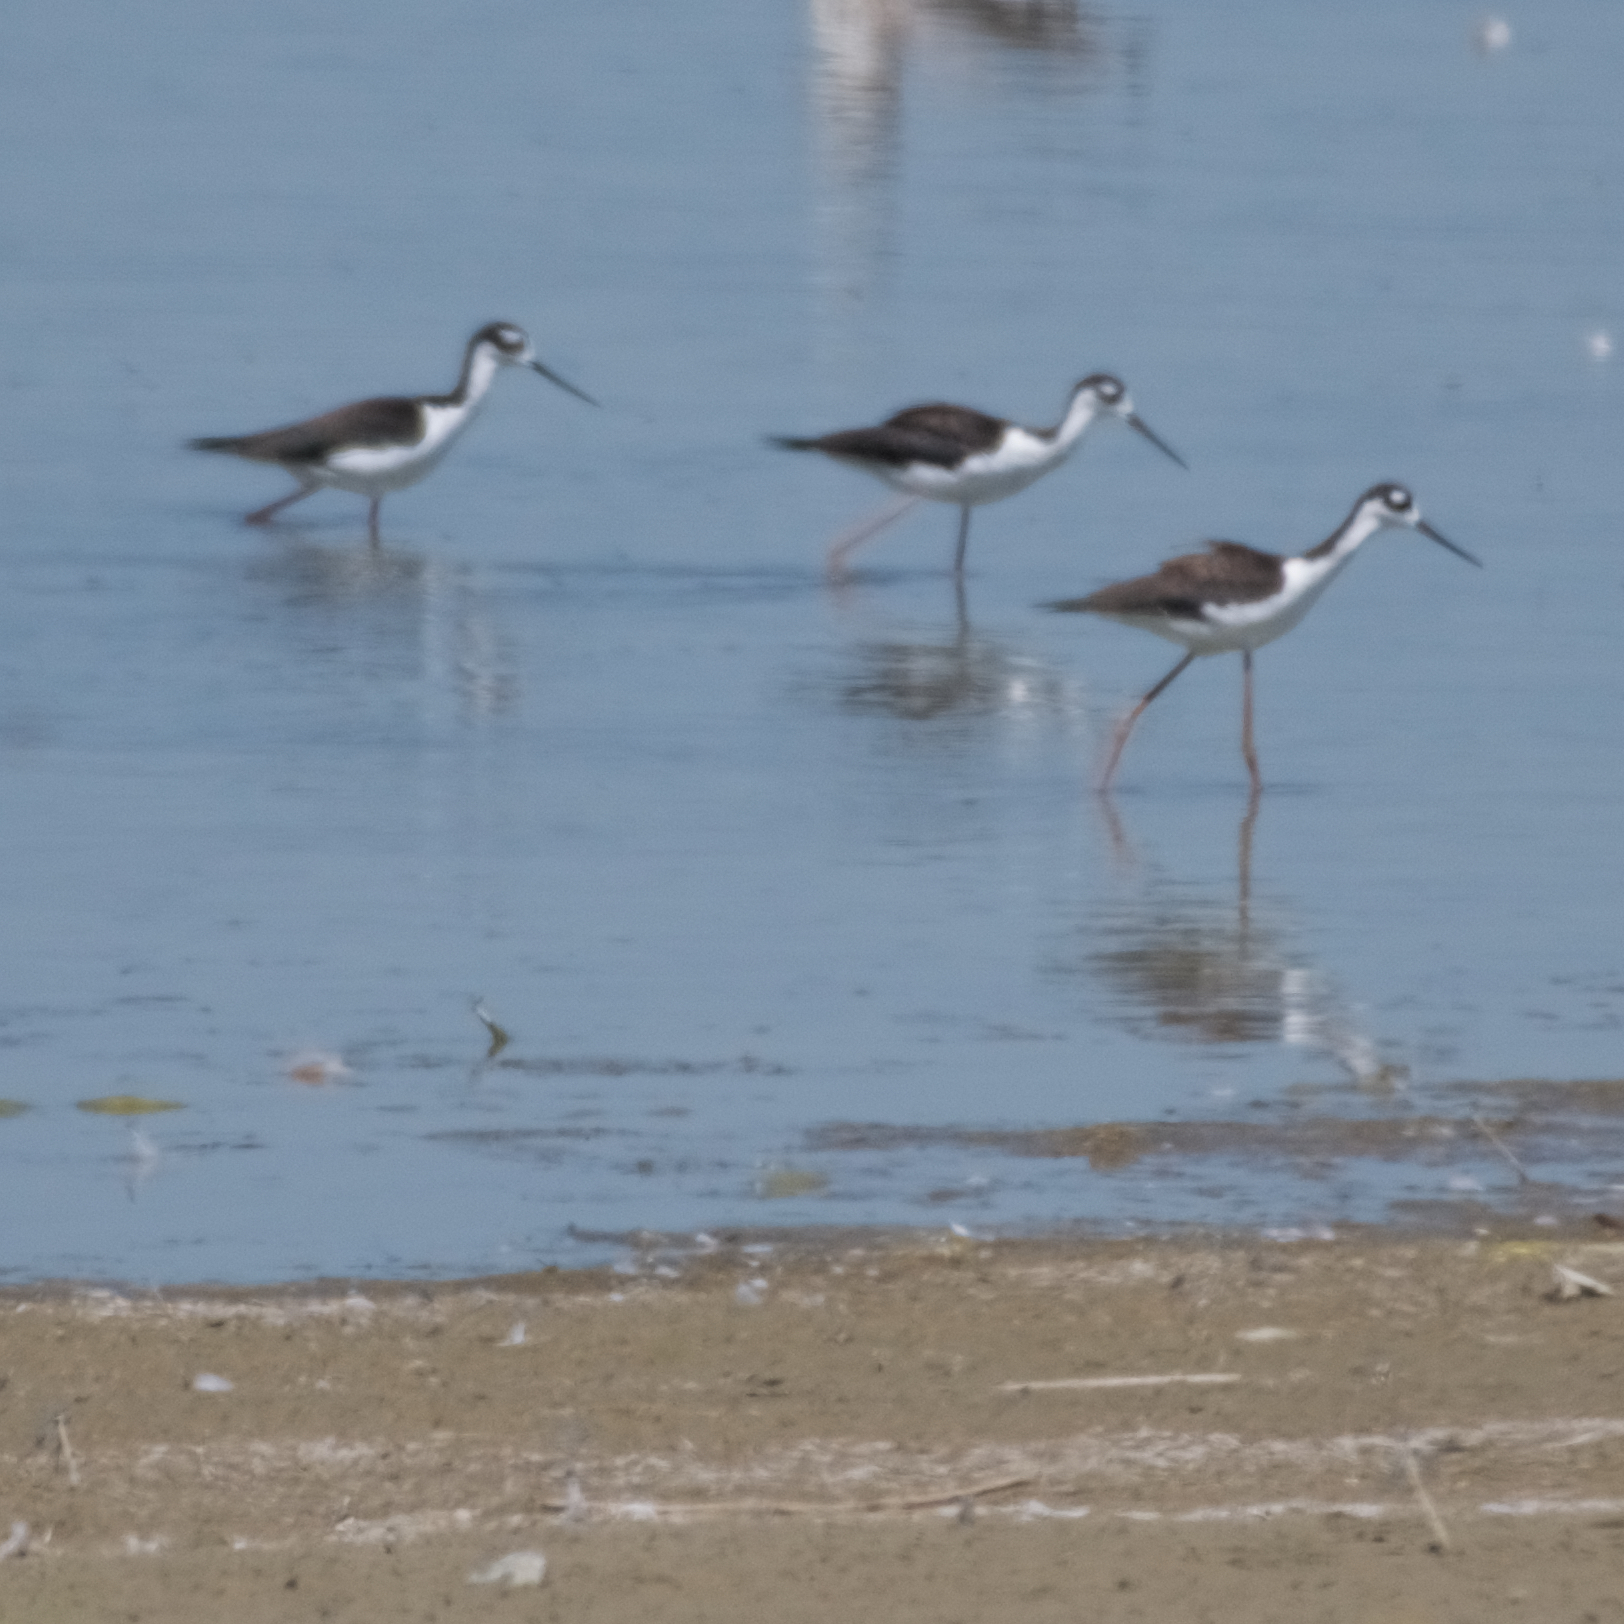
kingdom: Animalia
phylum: Chordata
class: Aves
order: Charadriiformes
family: Recurvirostridae
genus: Himantopus
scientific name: Himantopus mexicanus
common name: Black-necked stilt
